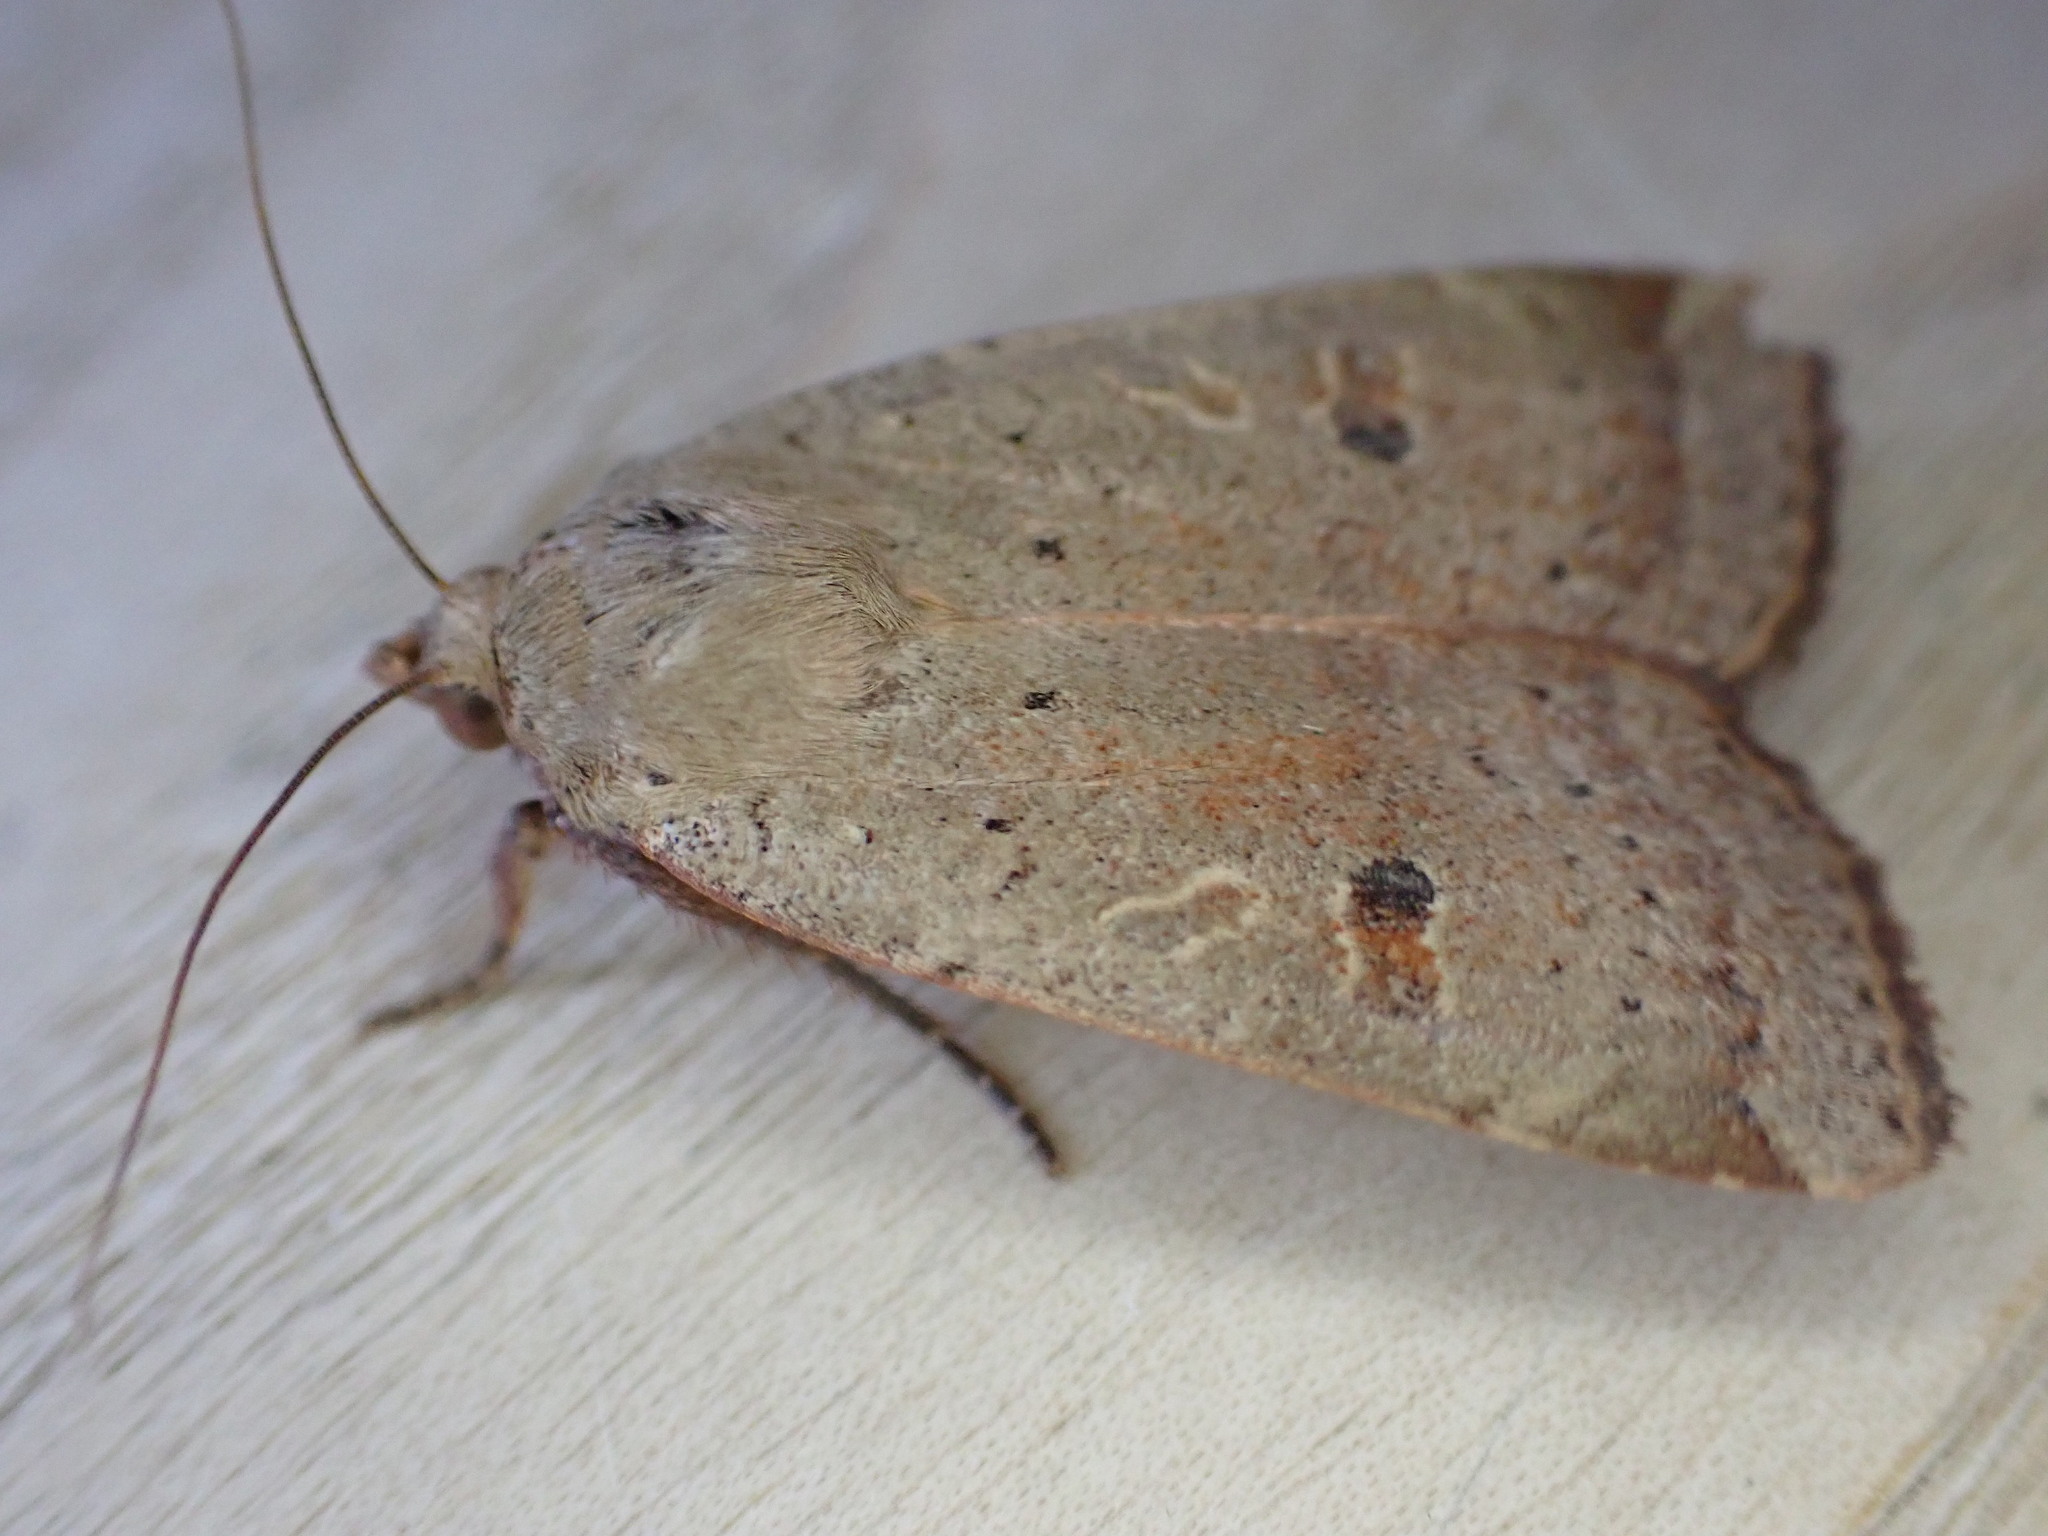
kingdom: Animalia
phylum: Arthropoda
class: Insecta
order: Lepidoptera
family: Noctuidae
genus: Noctua
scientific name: Noctua comes
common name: Lesser yellow underwing
